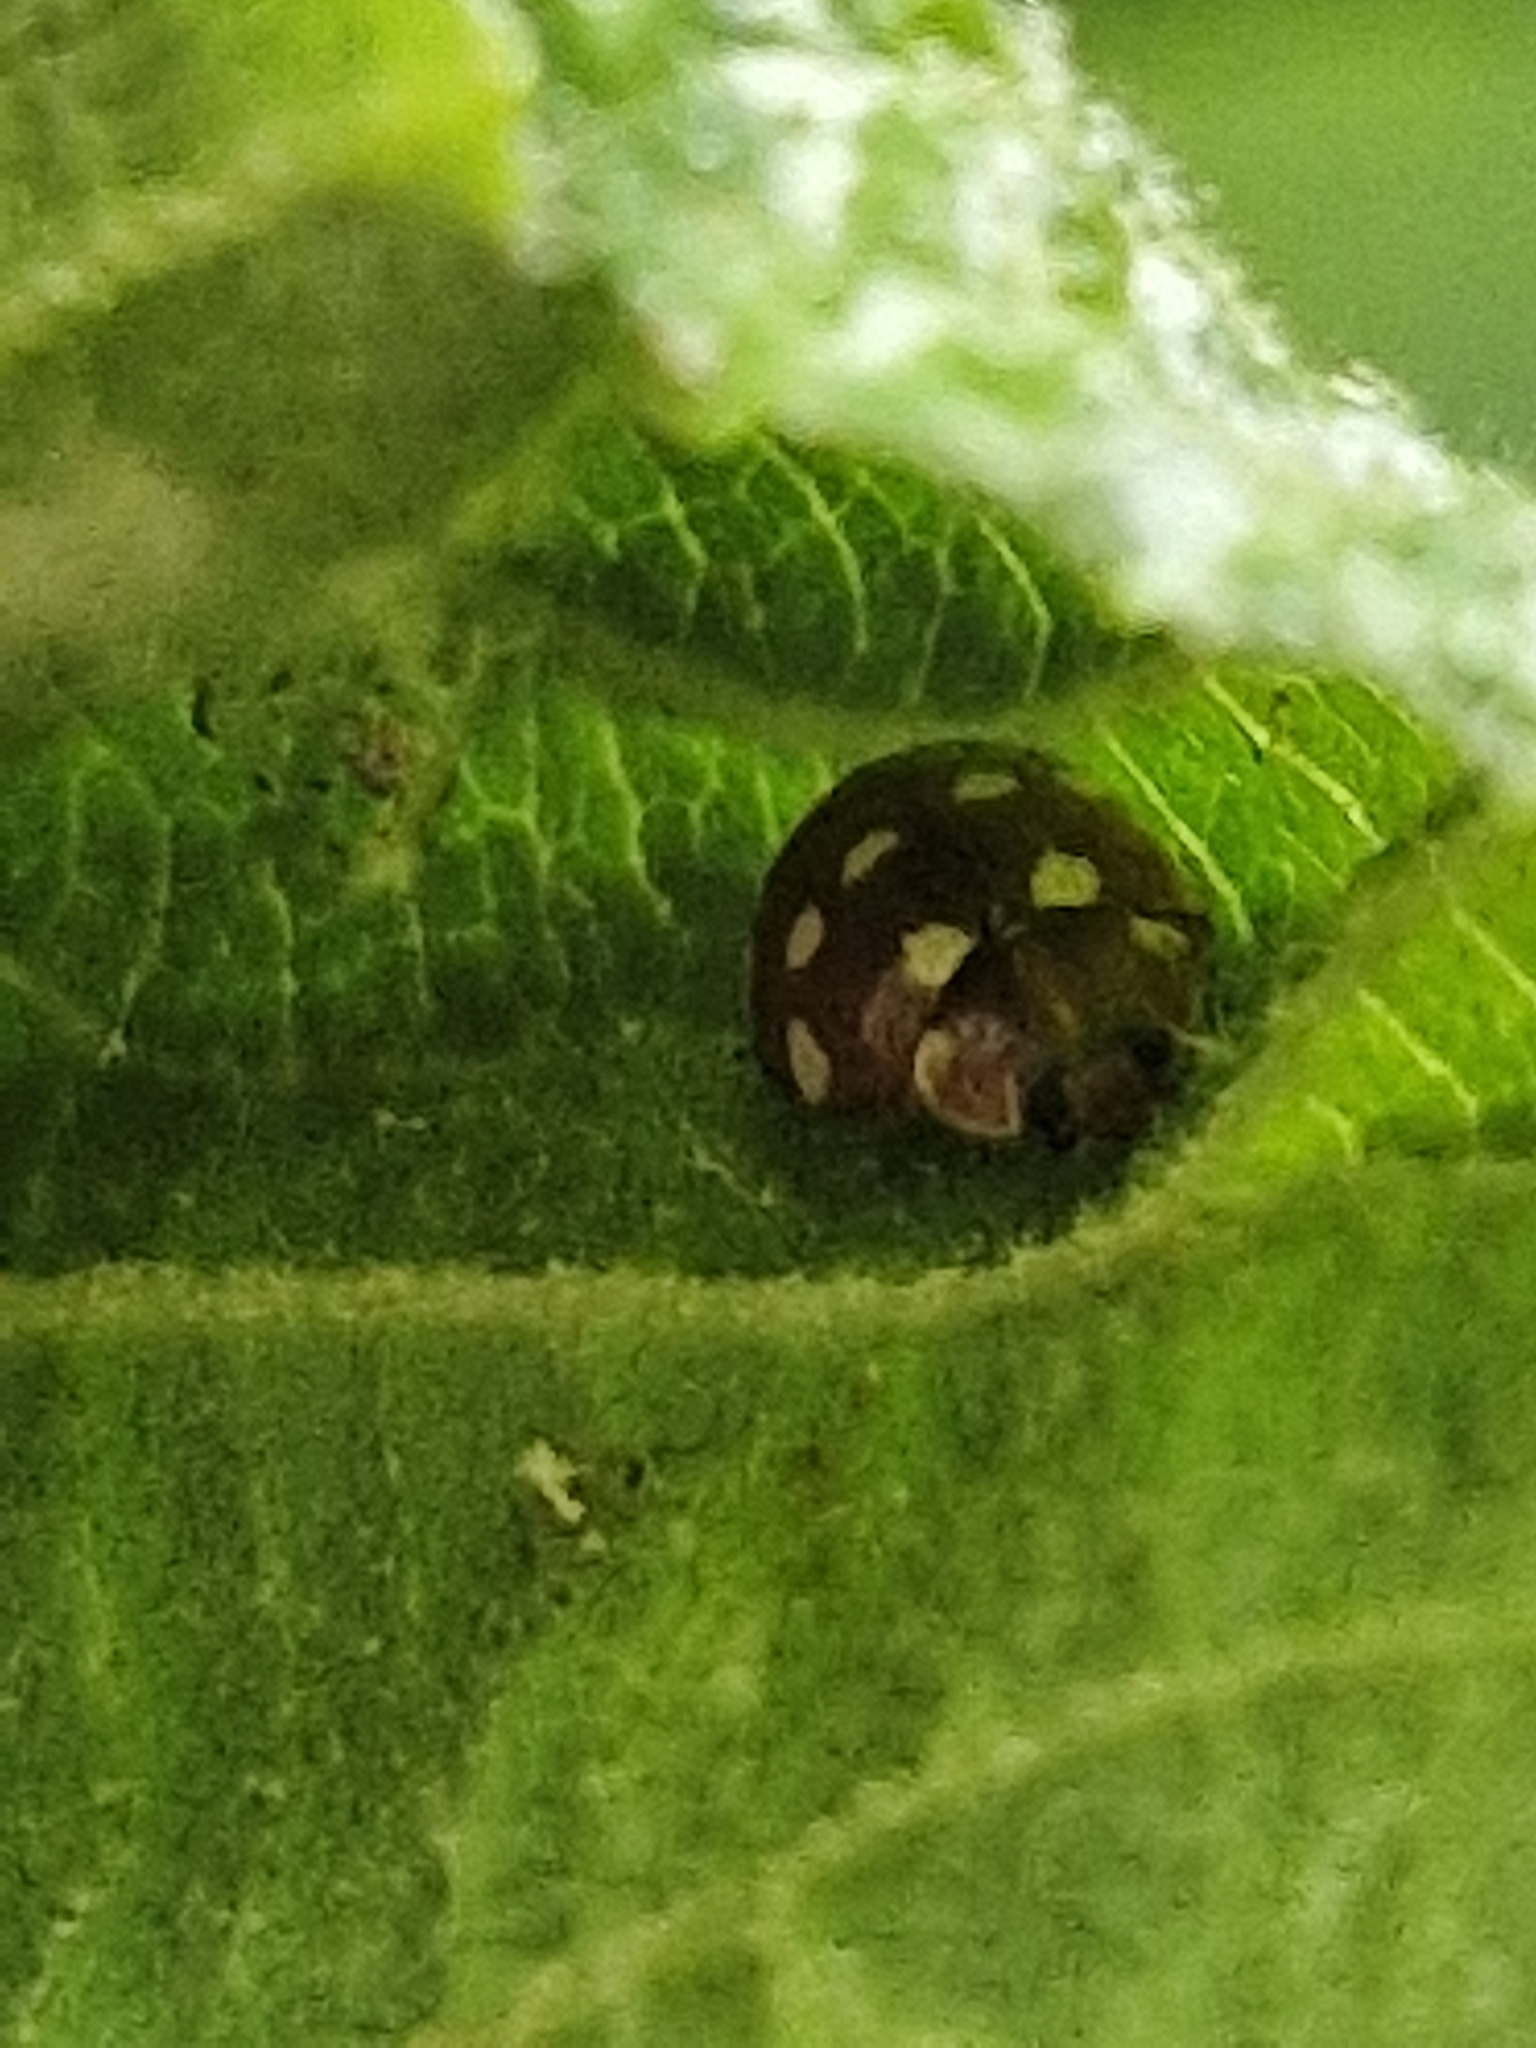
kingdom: Animalia
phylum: Arthropoda
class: Insecta
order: Coleoptera
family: Coccinellidae
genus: Calvia
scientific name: Calvia quatuordecimguttata
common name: Cream-spot ladybird
